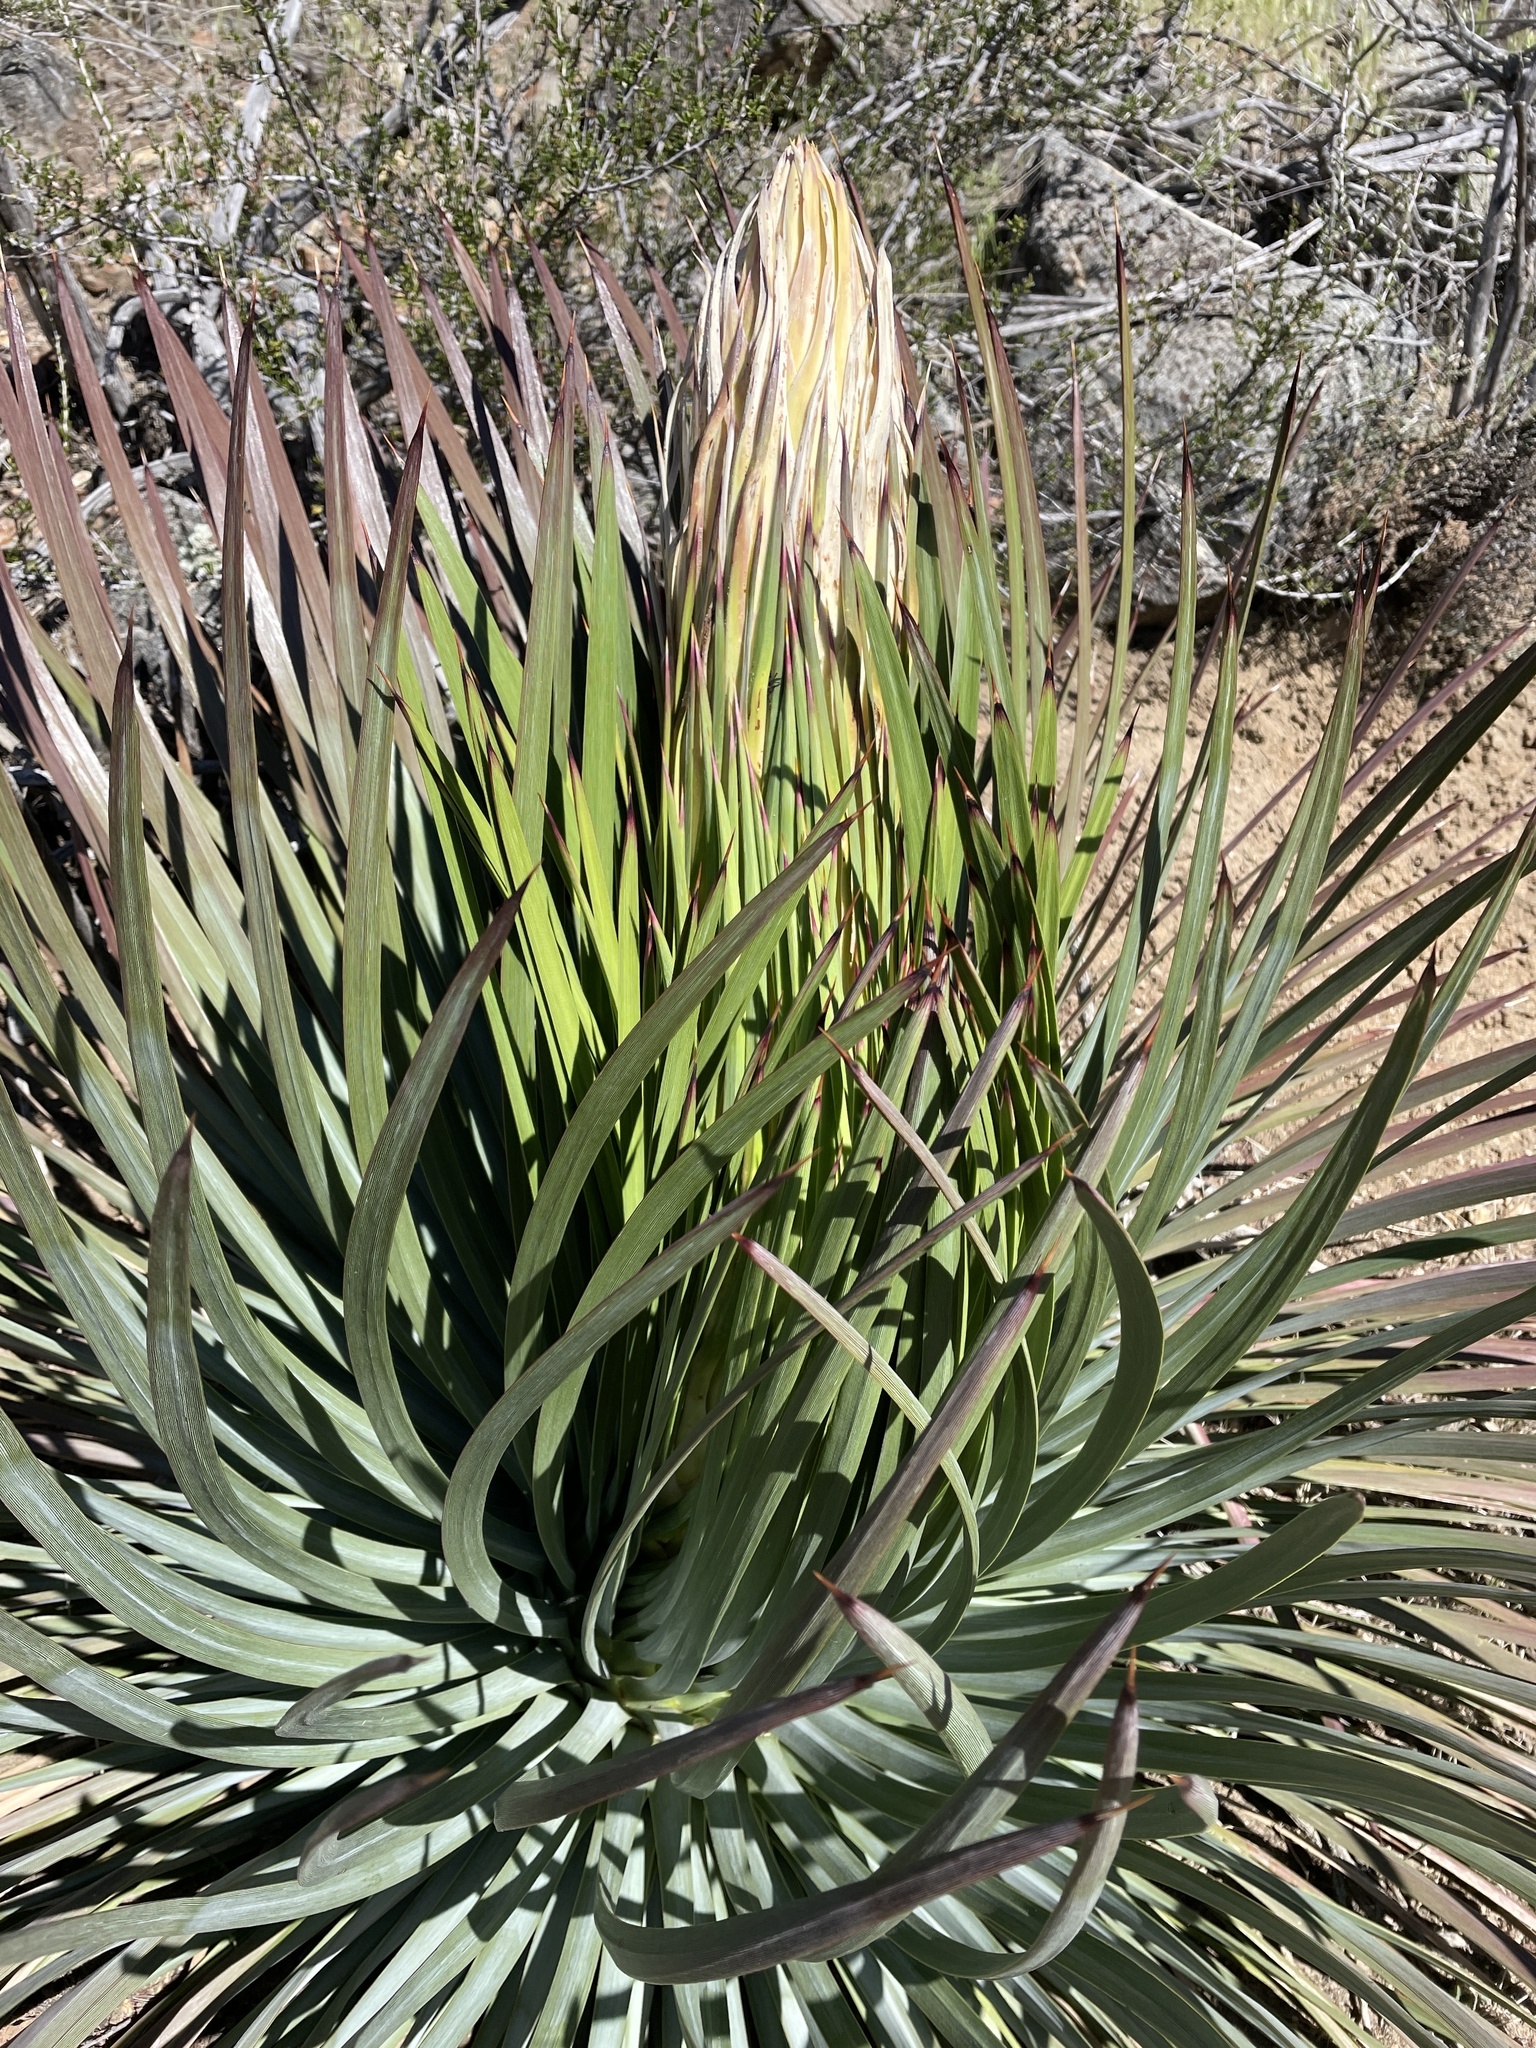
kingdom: Plantae
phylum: Tracheophyta
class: Liliopsida
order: Asparagales
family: Asparagaceae
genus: Hesperoyucca
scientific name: Hesperoyucca whipplei
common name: Our lord's-candle
